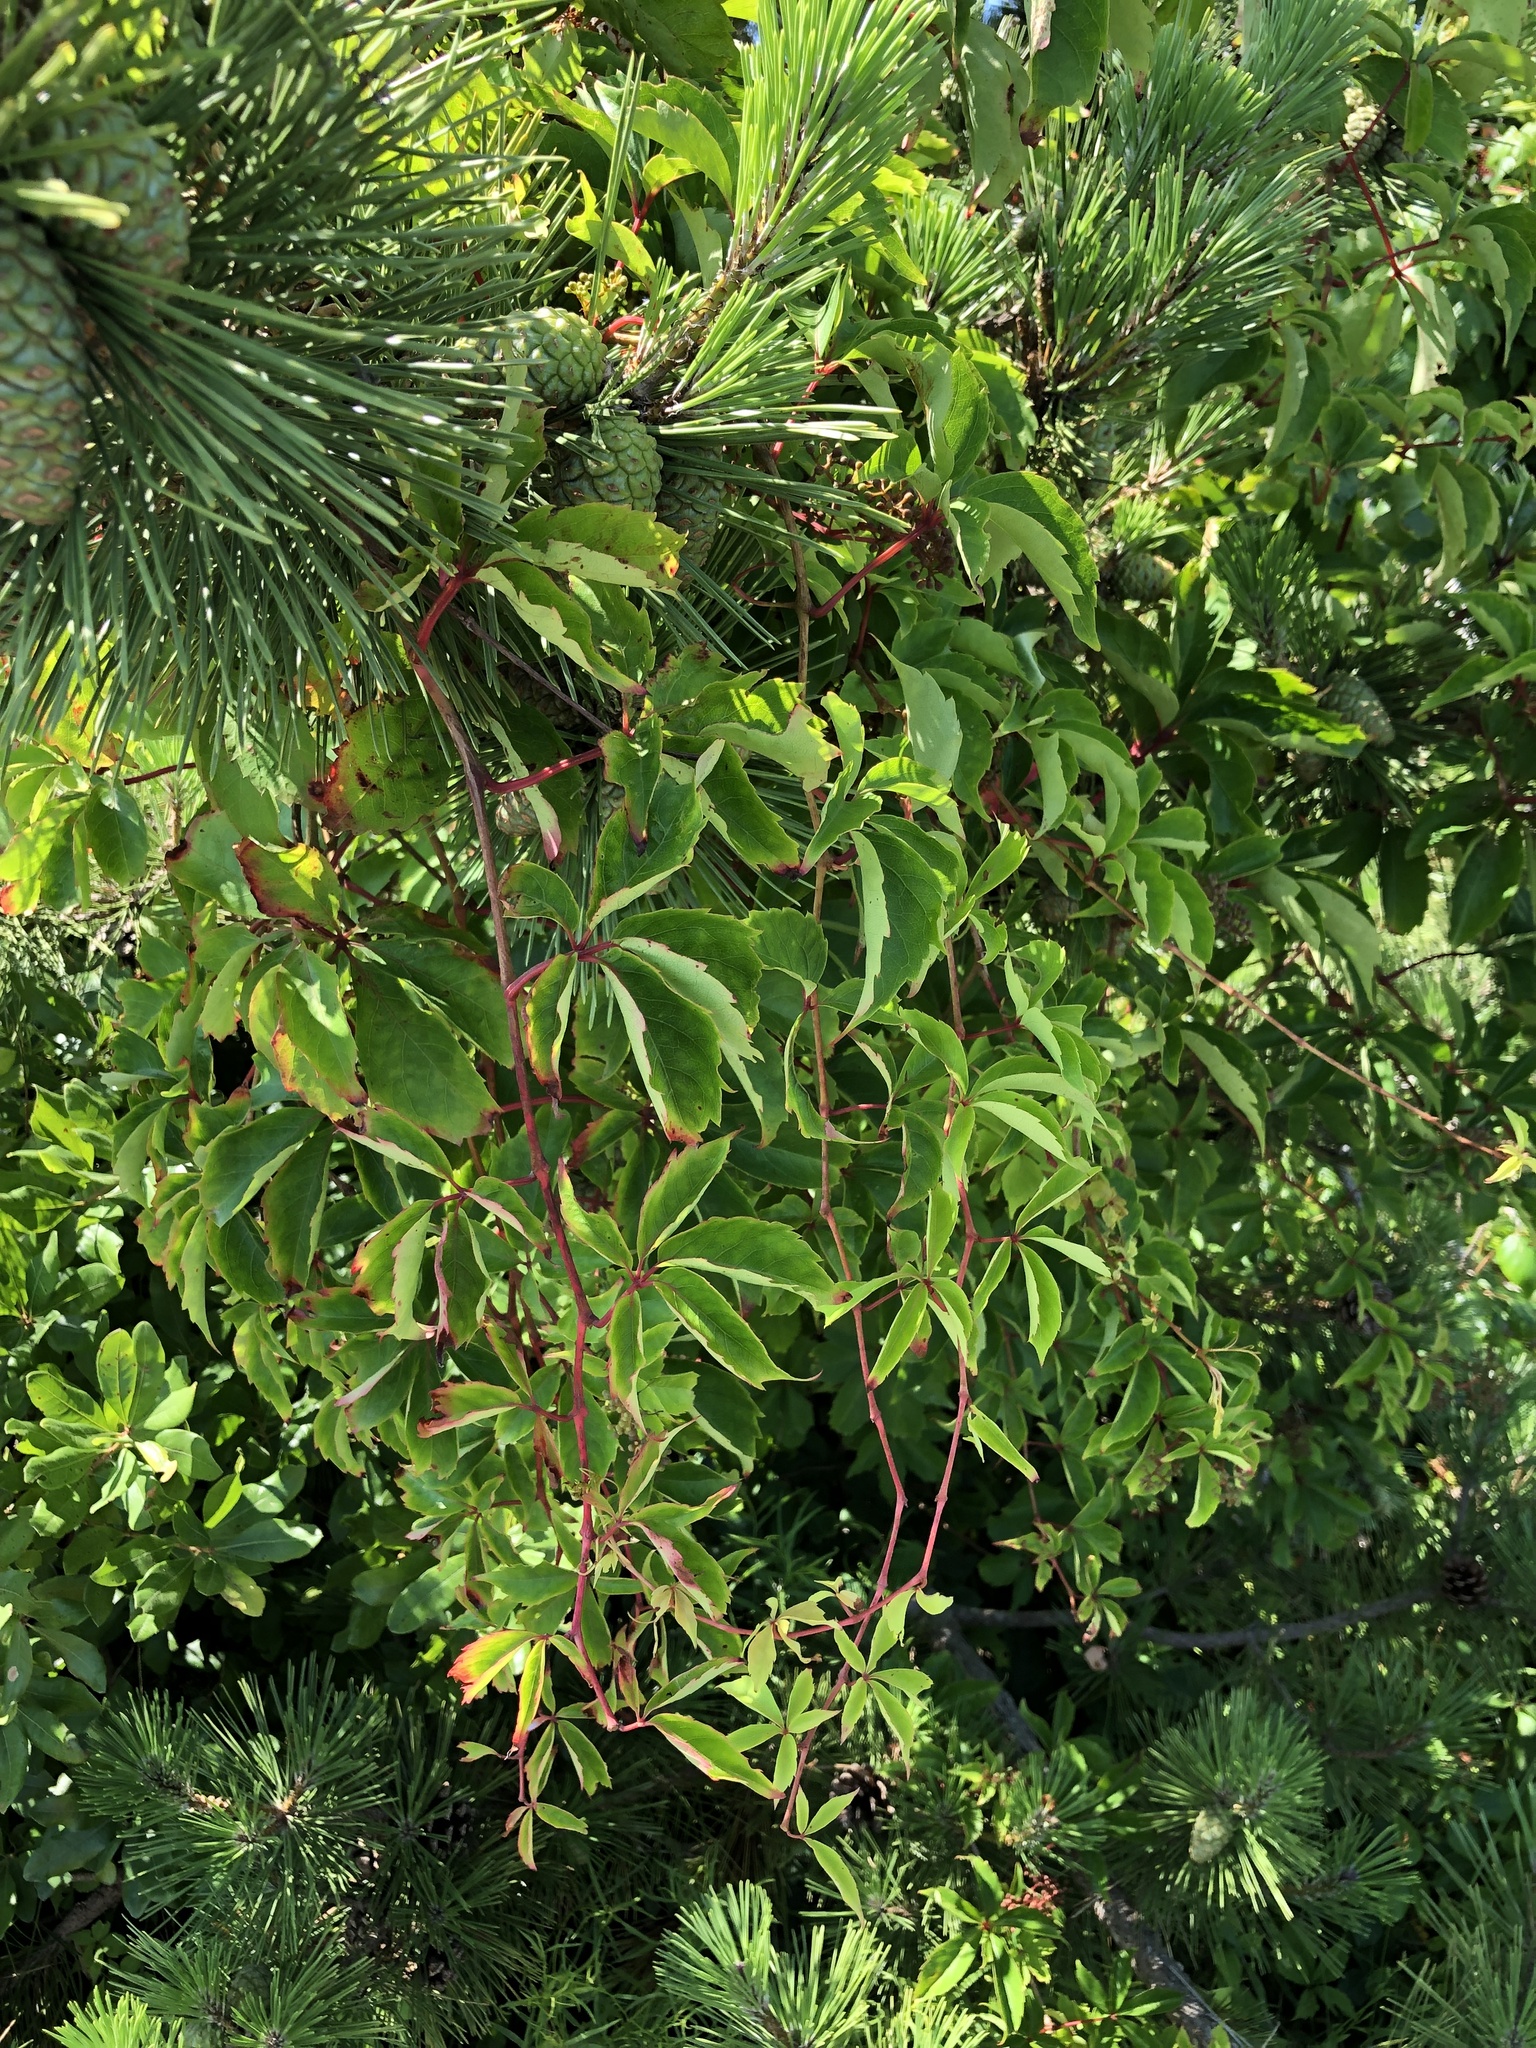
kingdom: Plantae
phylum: Tracheophyta
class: Magnoliopsida
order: Vitales
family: Vitaceae
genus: Parthenocissus
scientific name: Parthenocissus quinquefolia
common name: Virginia-creeper
